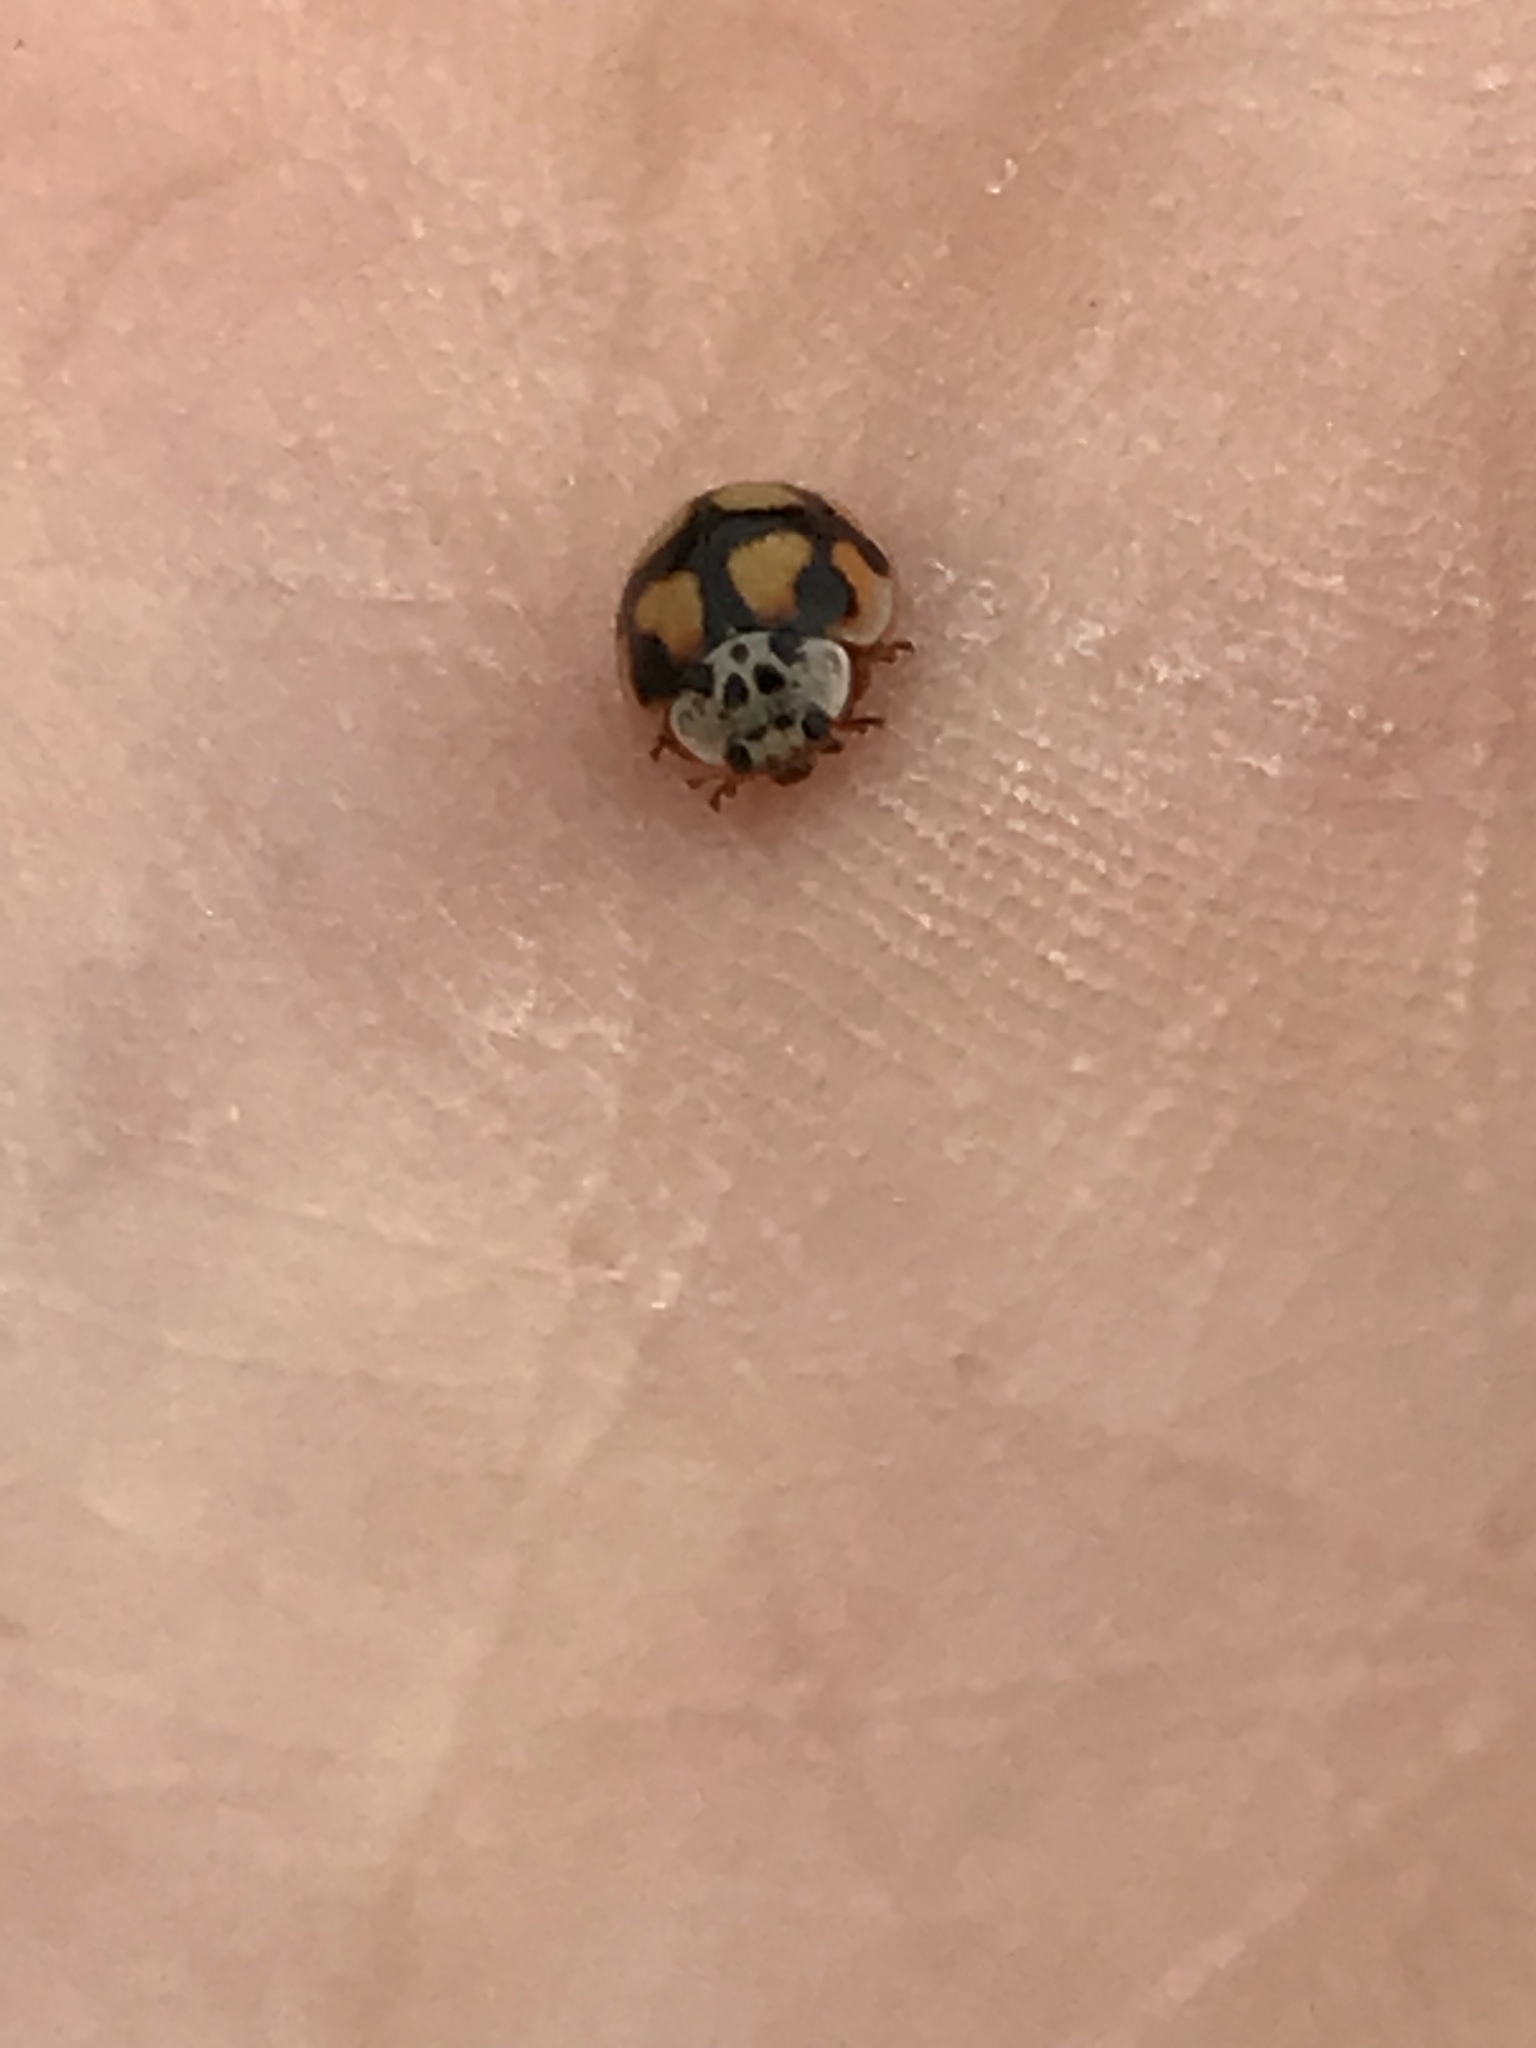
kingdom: Animalia
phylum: Arthropoda
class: Insecta
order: Coleoptera
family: Coccinellidae
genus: Adalia
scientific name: Adalia decempunctata
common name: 10-spot ladybird
